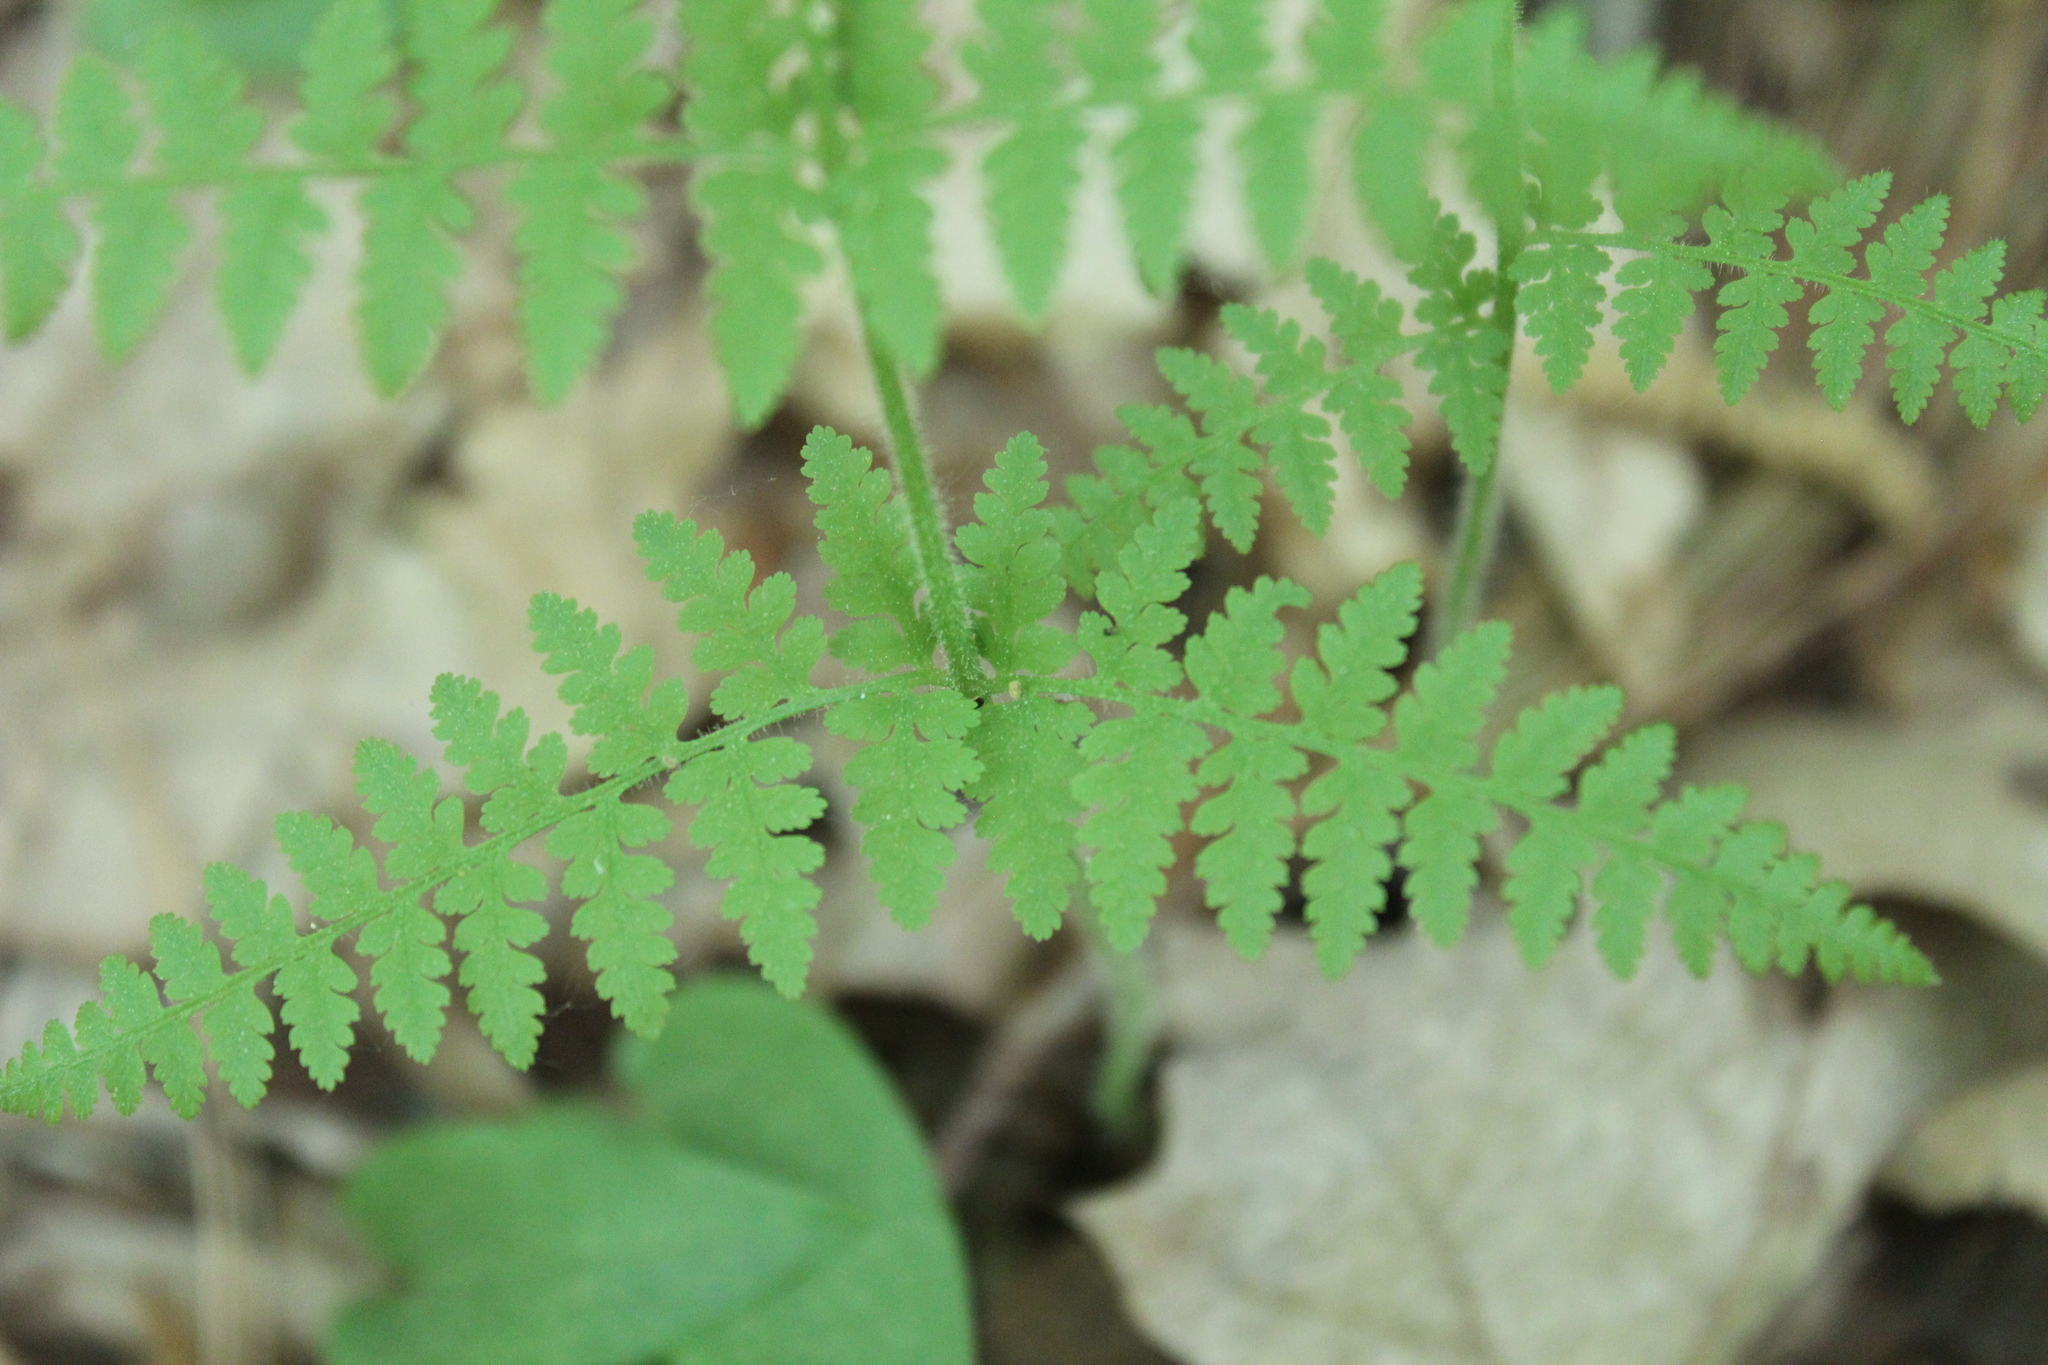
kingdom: Plantae
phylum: Tracheophyta
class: Polypodiopsida
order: Polypodiales
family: Dennstaedtiaceae
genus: Sitobolium
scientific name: Sitobolium punctilobum
